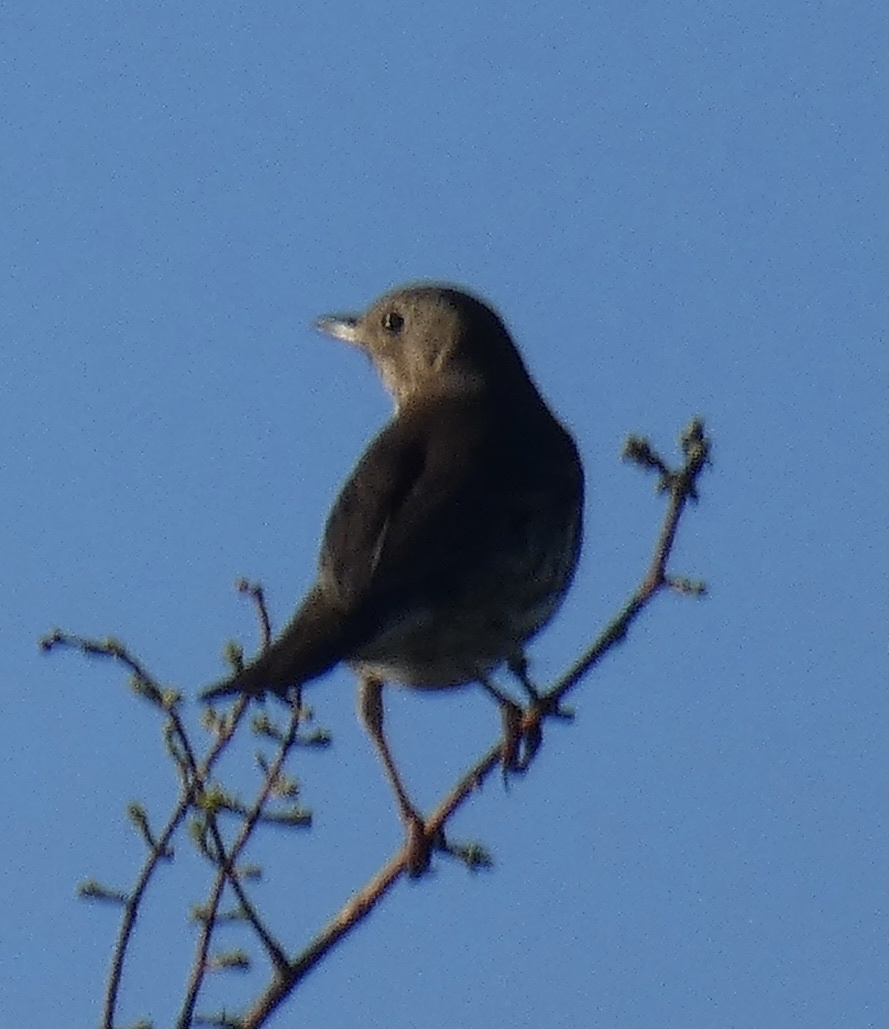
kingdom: Animalia
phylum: Chordata
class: Aves
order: Passeriformes
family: Turdidae
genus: Turdus
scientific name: Turdus philomelos
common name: Song thrush
